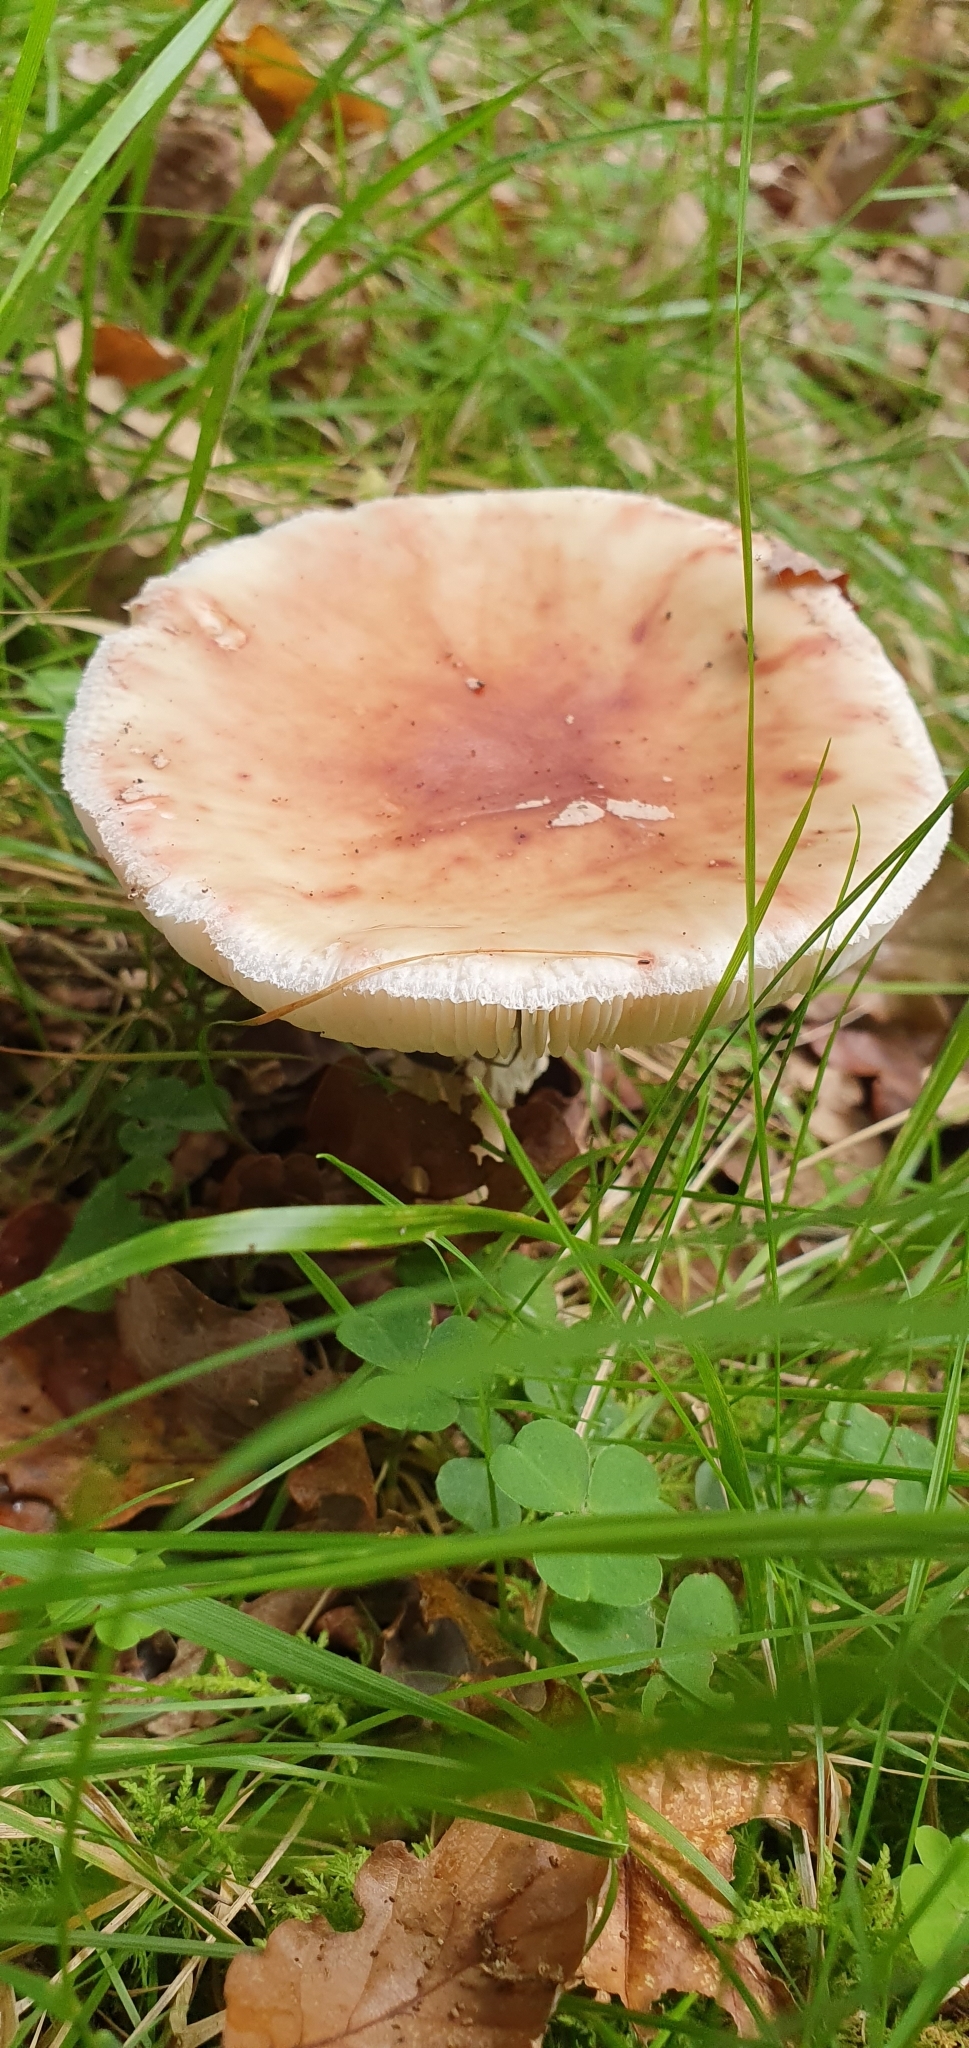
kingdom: Fungi
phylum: Basidiomycota
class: Agaricomycetes
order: Agaricales
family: Amanitaceae
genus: Amanita
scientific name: Amanita rubescens
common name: Blusher
